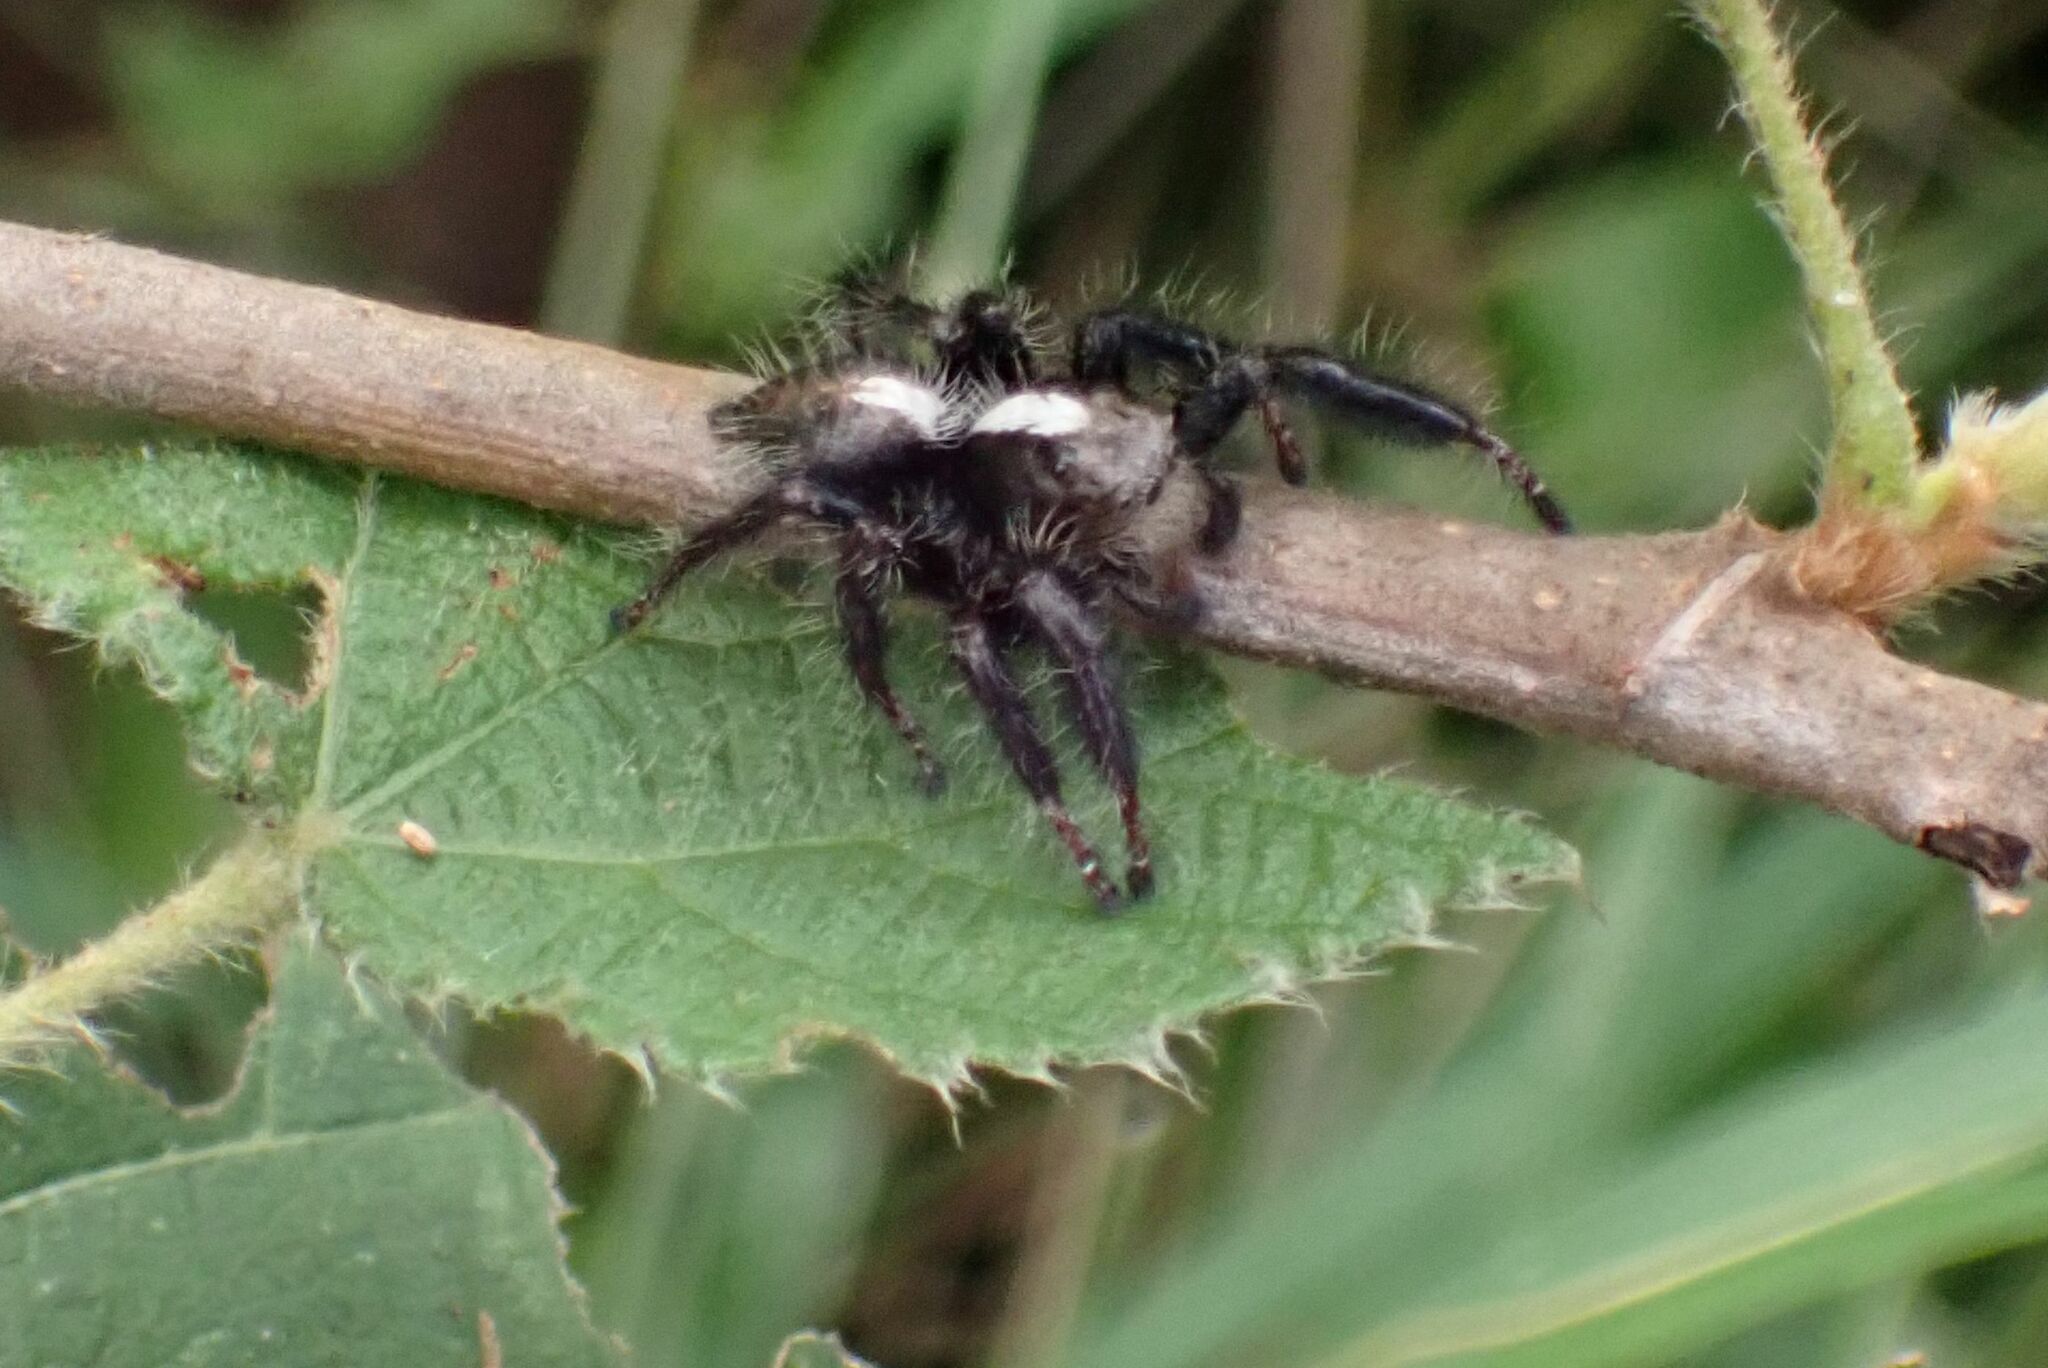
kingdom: Animalia
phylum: Arthropoda
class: Arachnida
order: Araneae
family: Salticidae
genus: Hyllus
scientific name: Hyllus treleaveni
